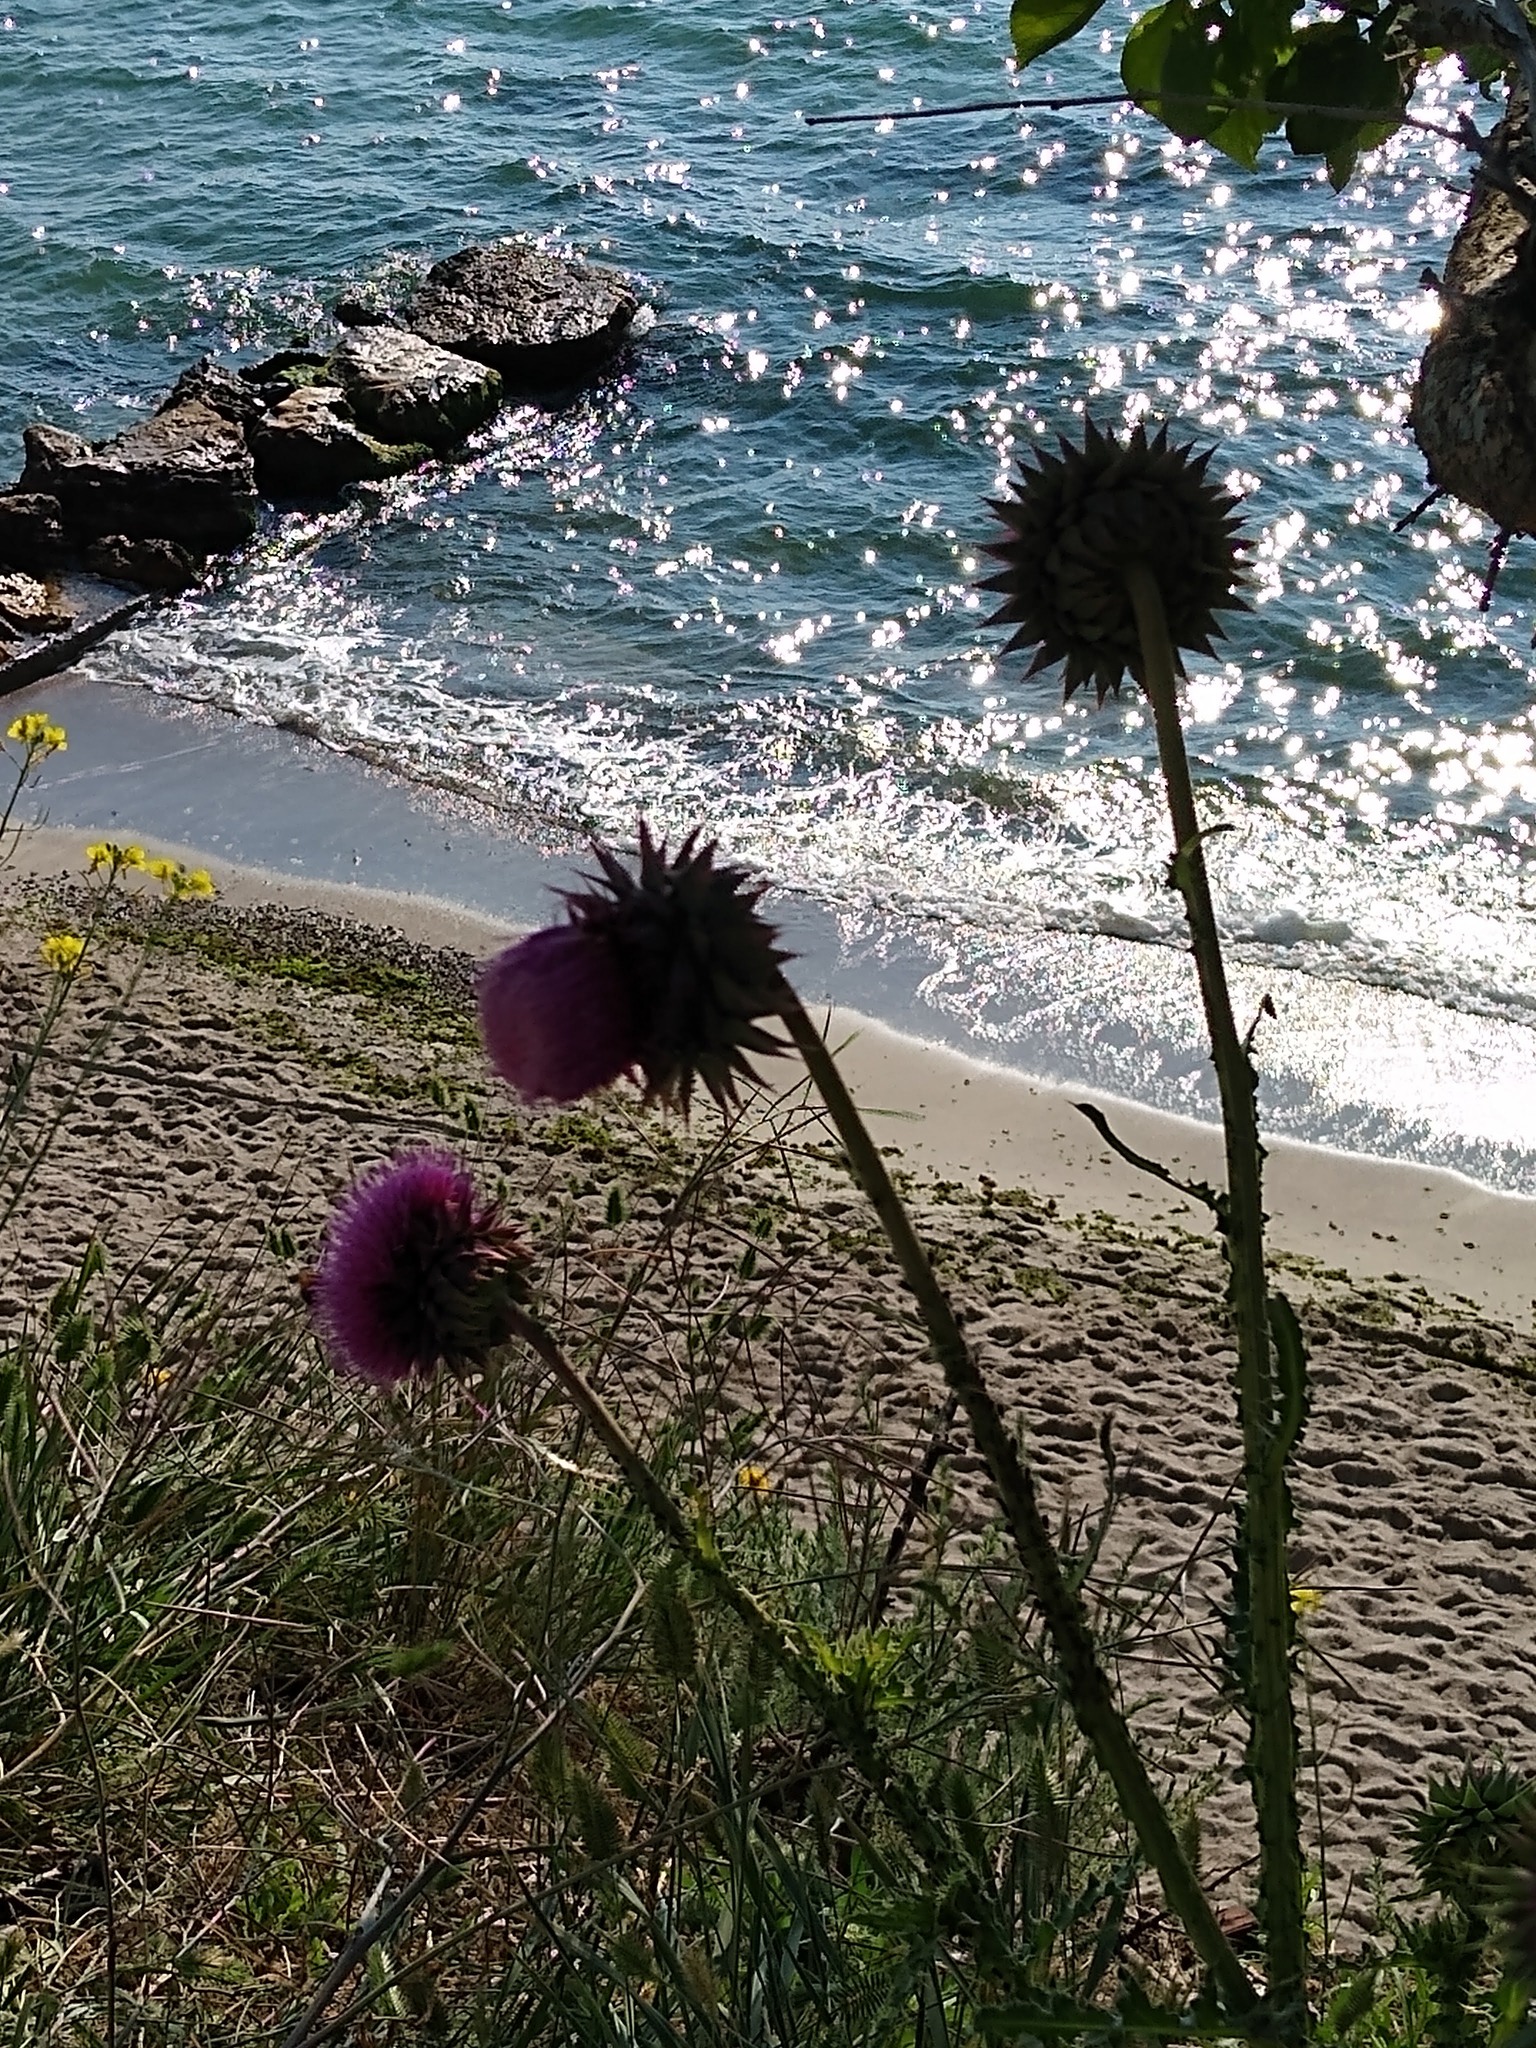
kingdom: Plantae
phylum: Tracheophyta
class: Magnoliopsida
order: Asterales
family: Asteraceae
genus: Carduus
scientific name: Carduus nutans
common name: Musk thistle
